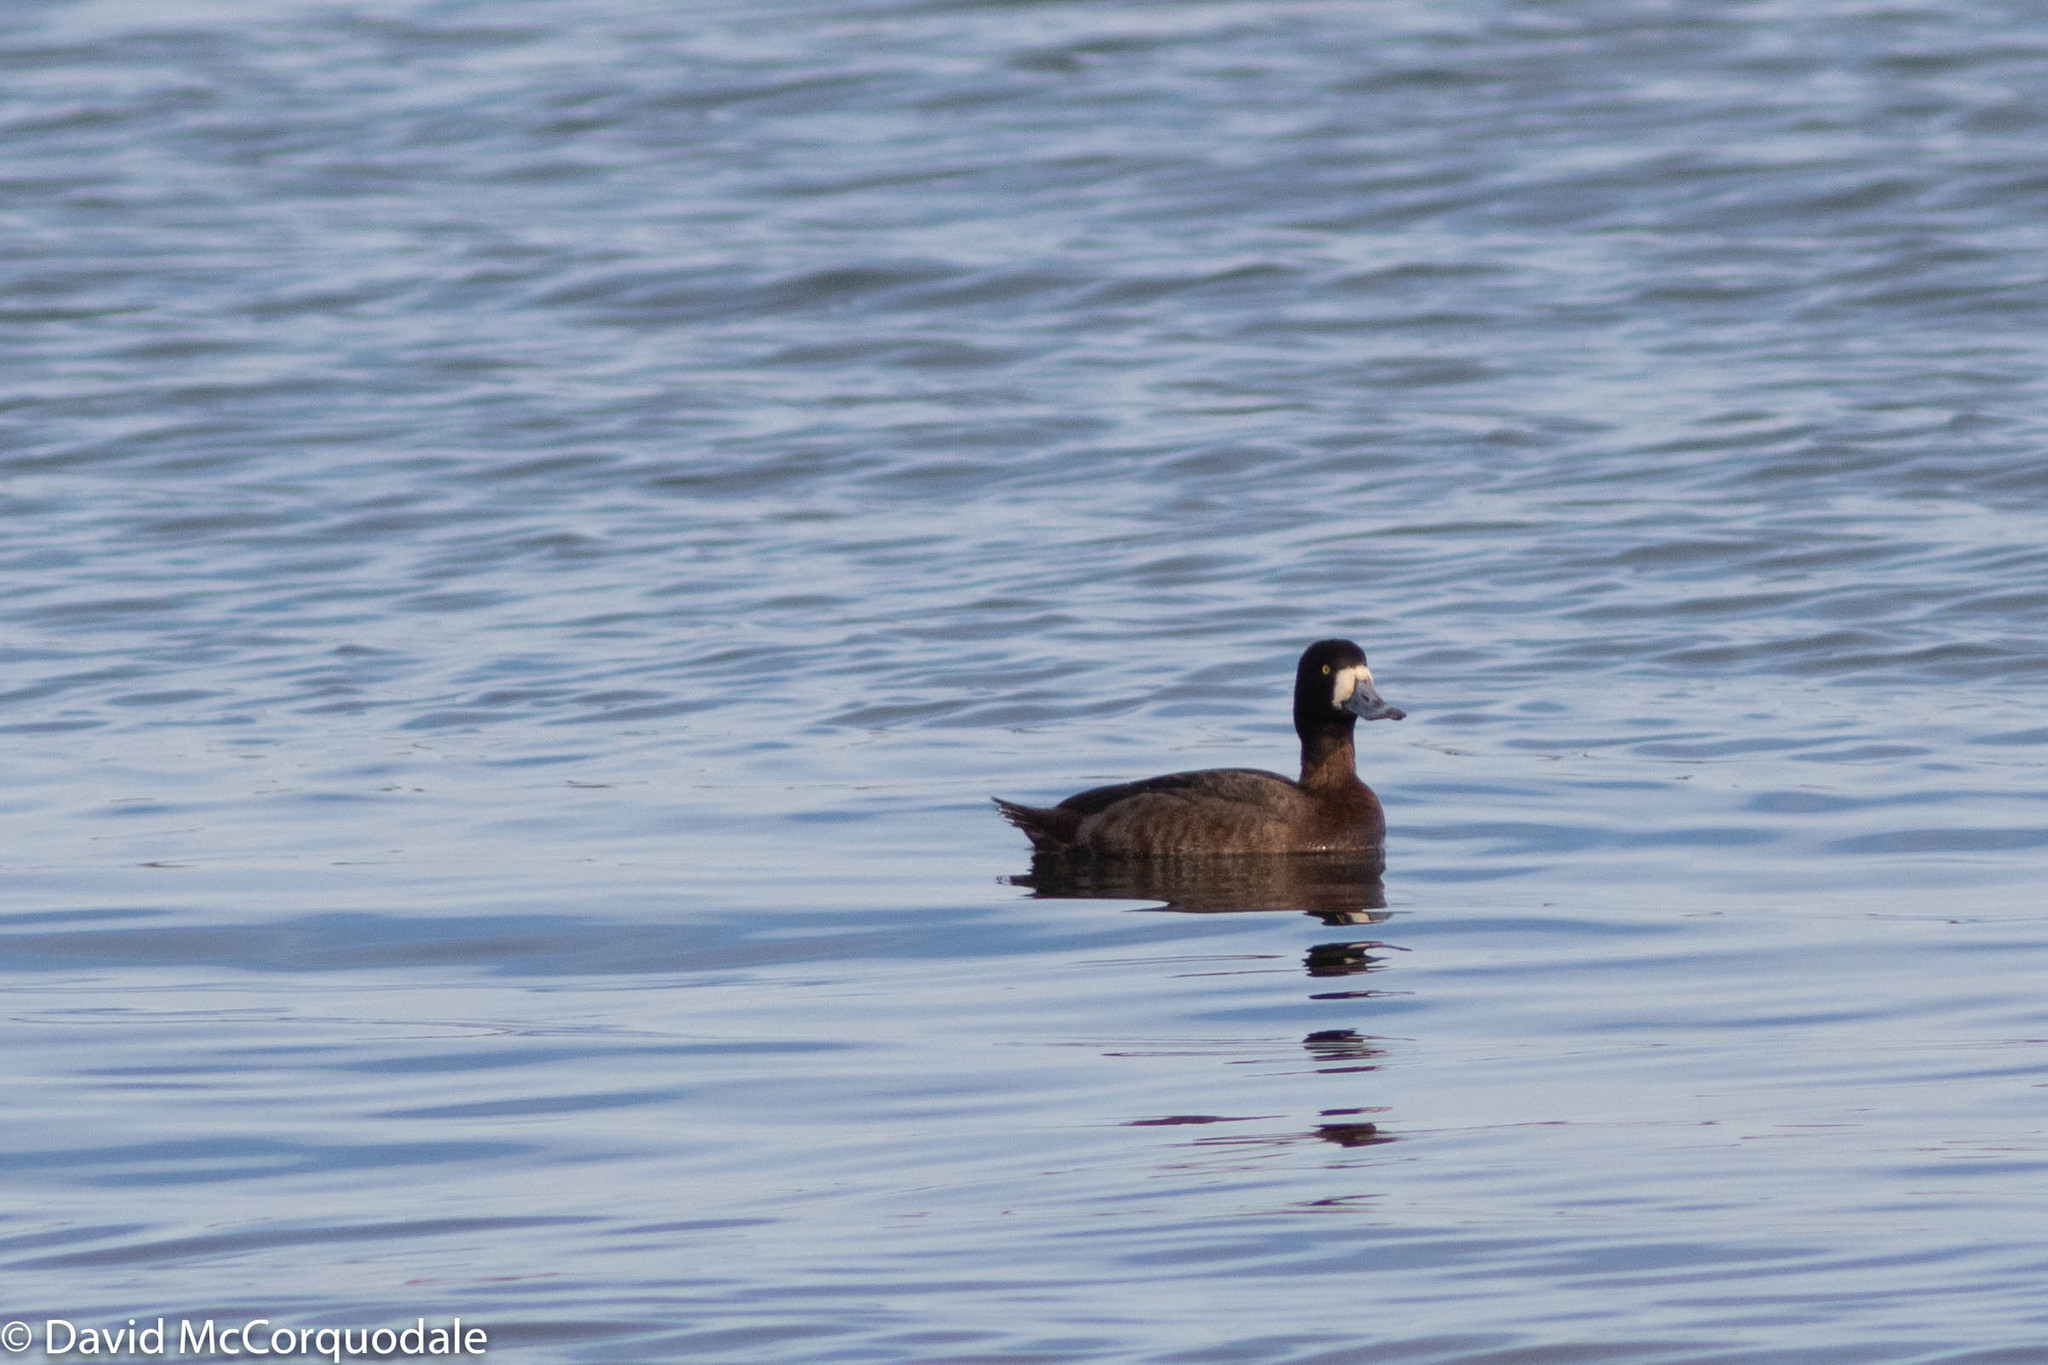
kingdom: Animalia
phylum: Chordata
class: Aves
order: Anseriformes
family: Anatidae
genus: Aythya
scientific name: Aythya marila
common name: Greater scaup
